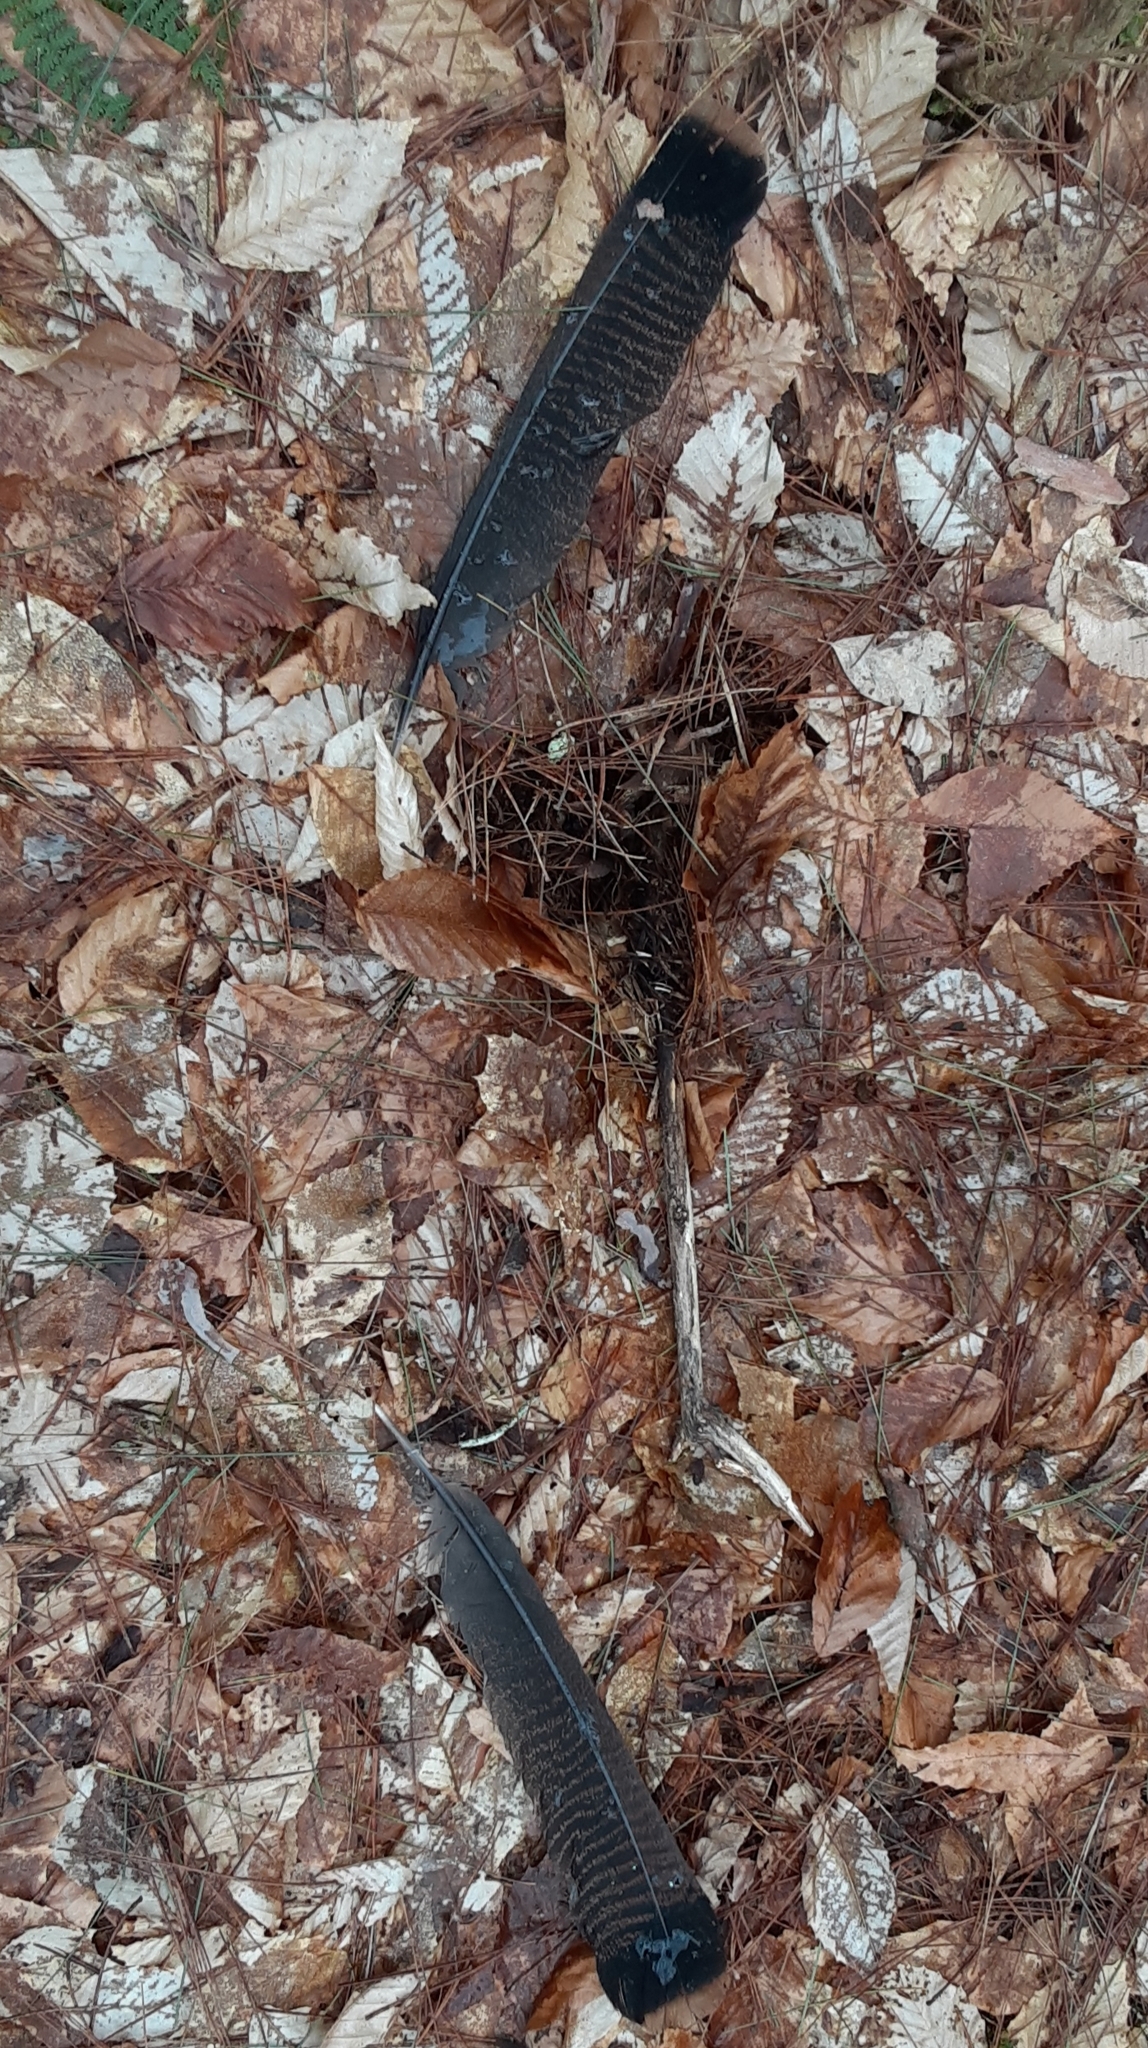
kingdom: Animalia
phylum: Chordata
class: Aves
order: Galliformes
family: Phasianidae
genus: Meleagris
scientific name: Meleagris gallopavo
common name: Wild turkey
